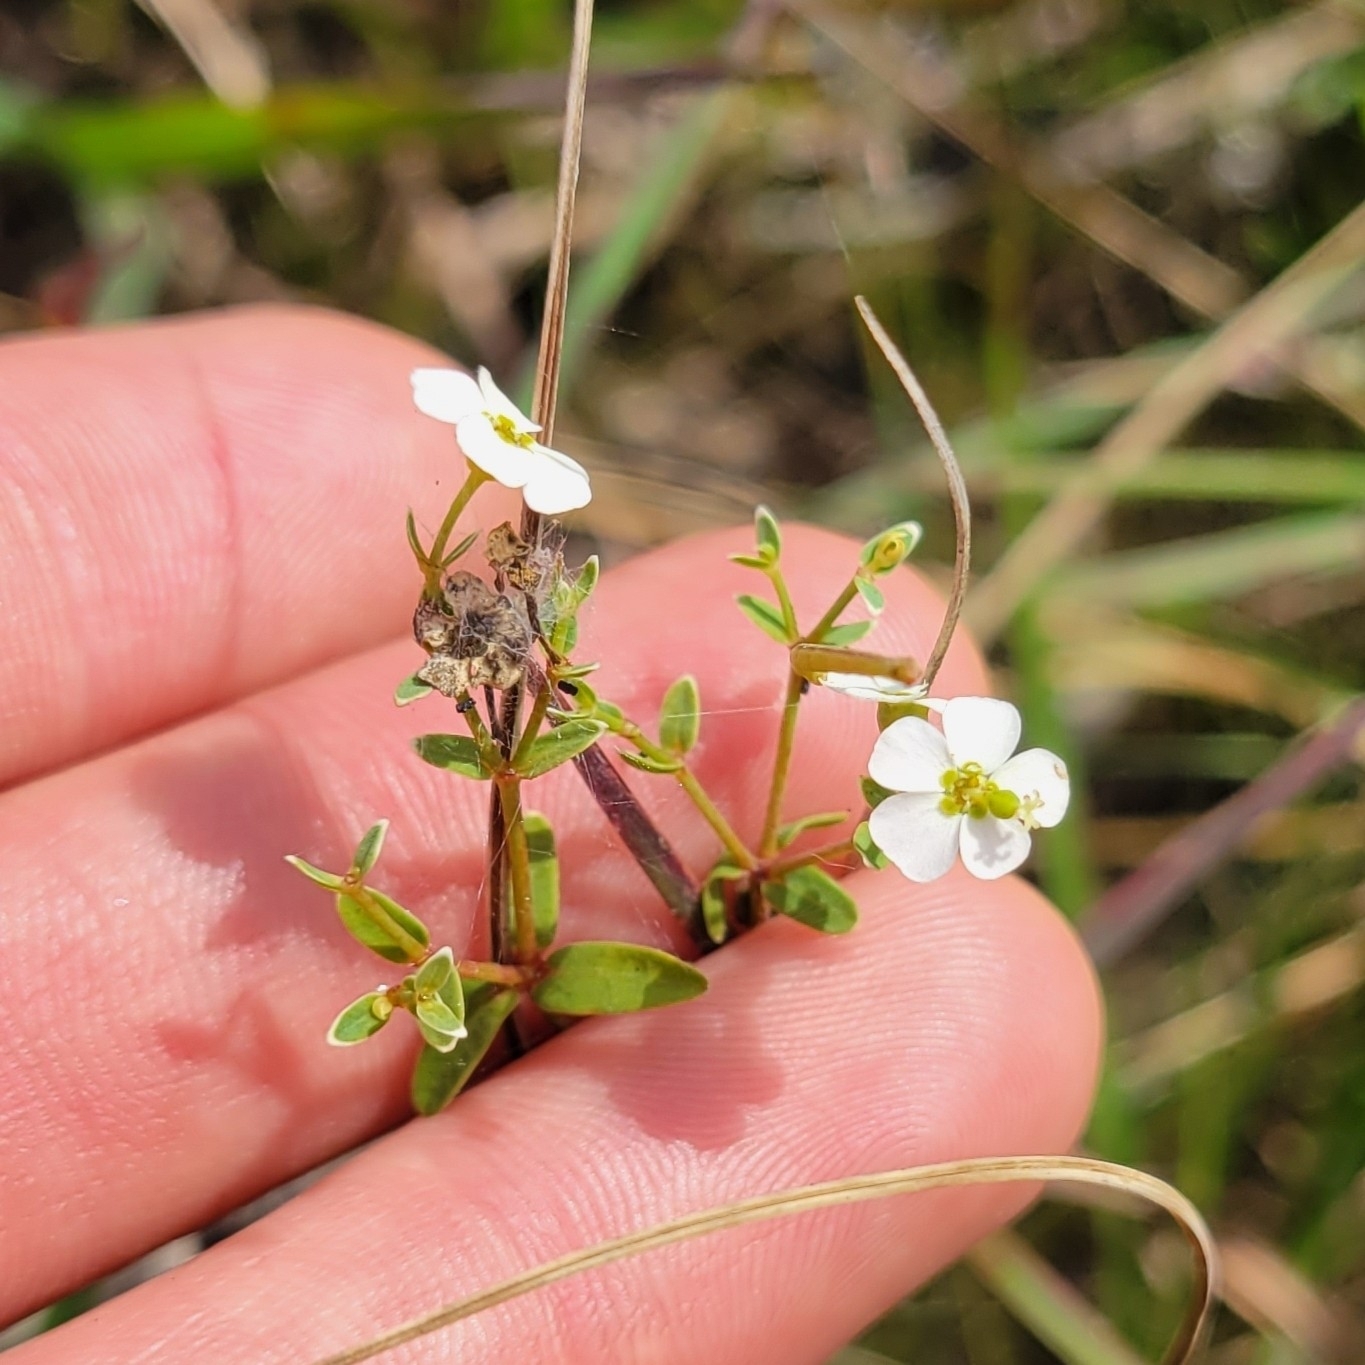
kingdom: Plantae
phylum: Tracheophyta
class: Magnoliopsida
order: Malpighiales
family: Euphorbiaceae
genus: Euphorbia
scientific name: Euphorbia corollata
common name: Flowering spurge
